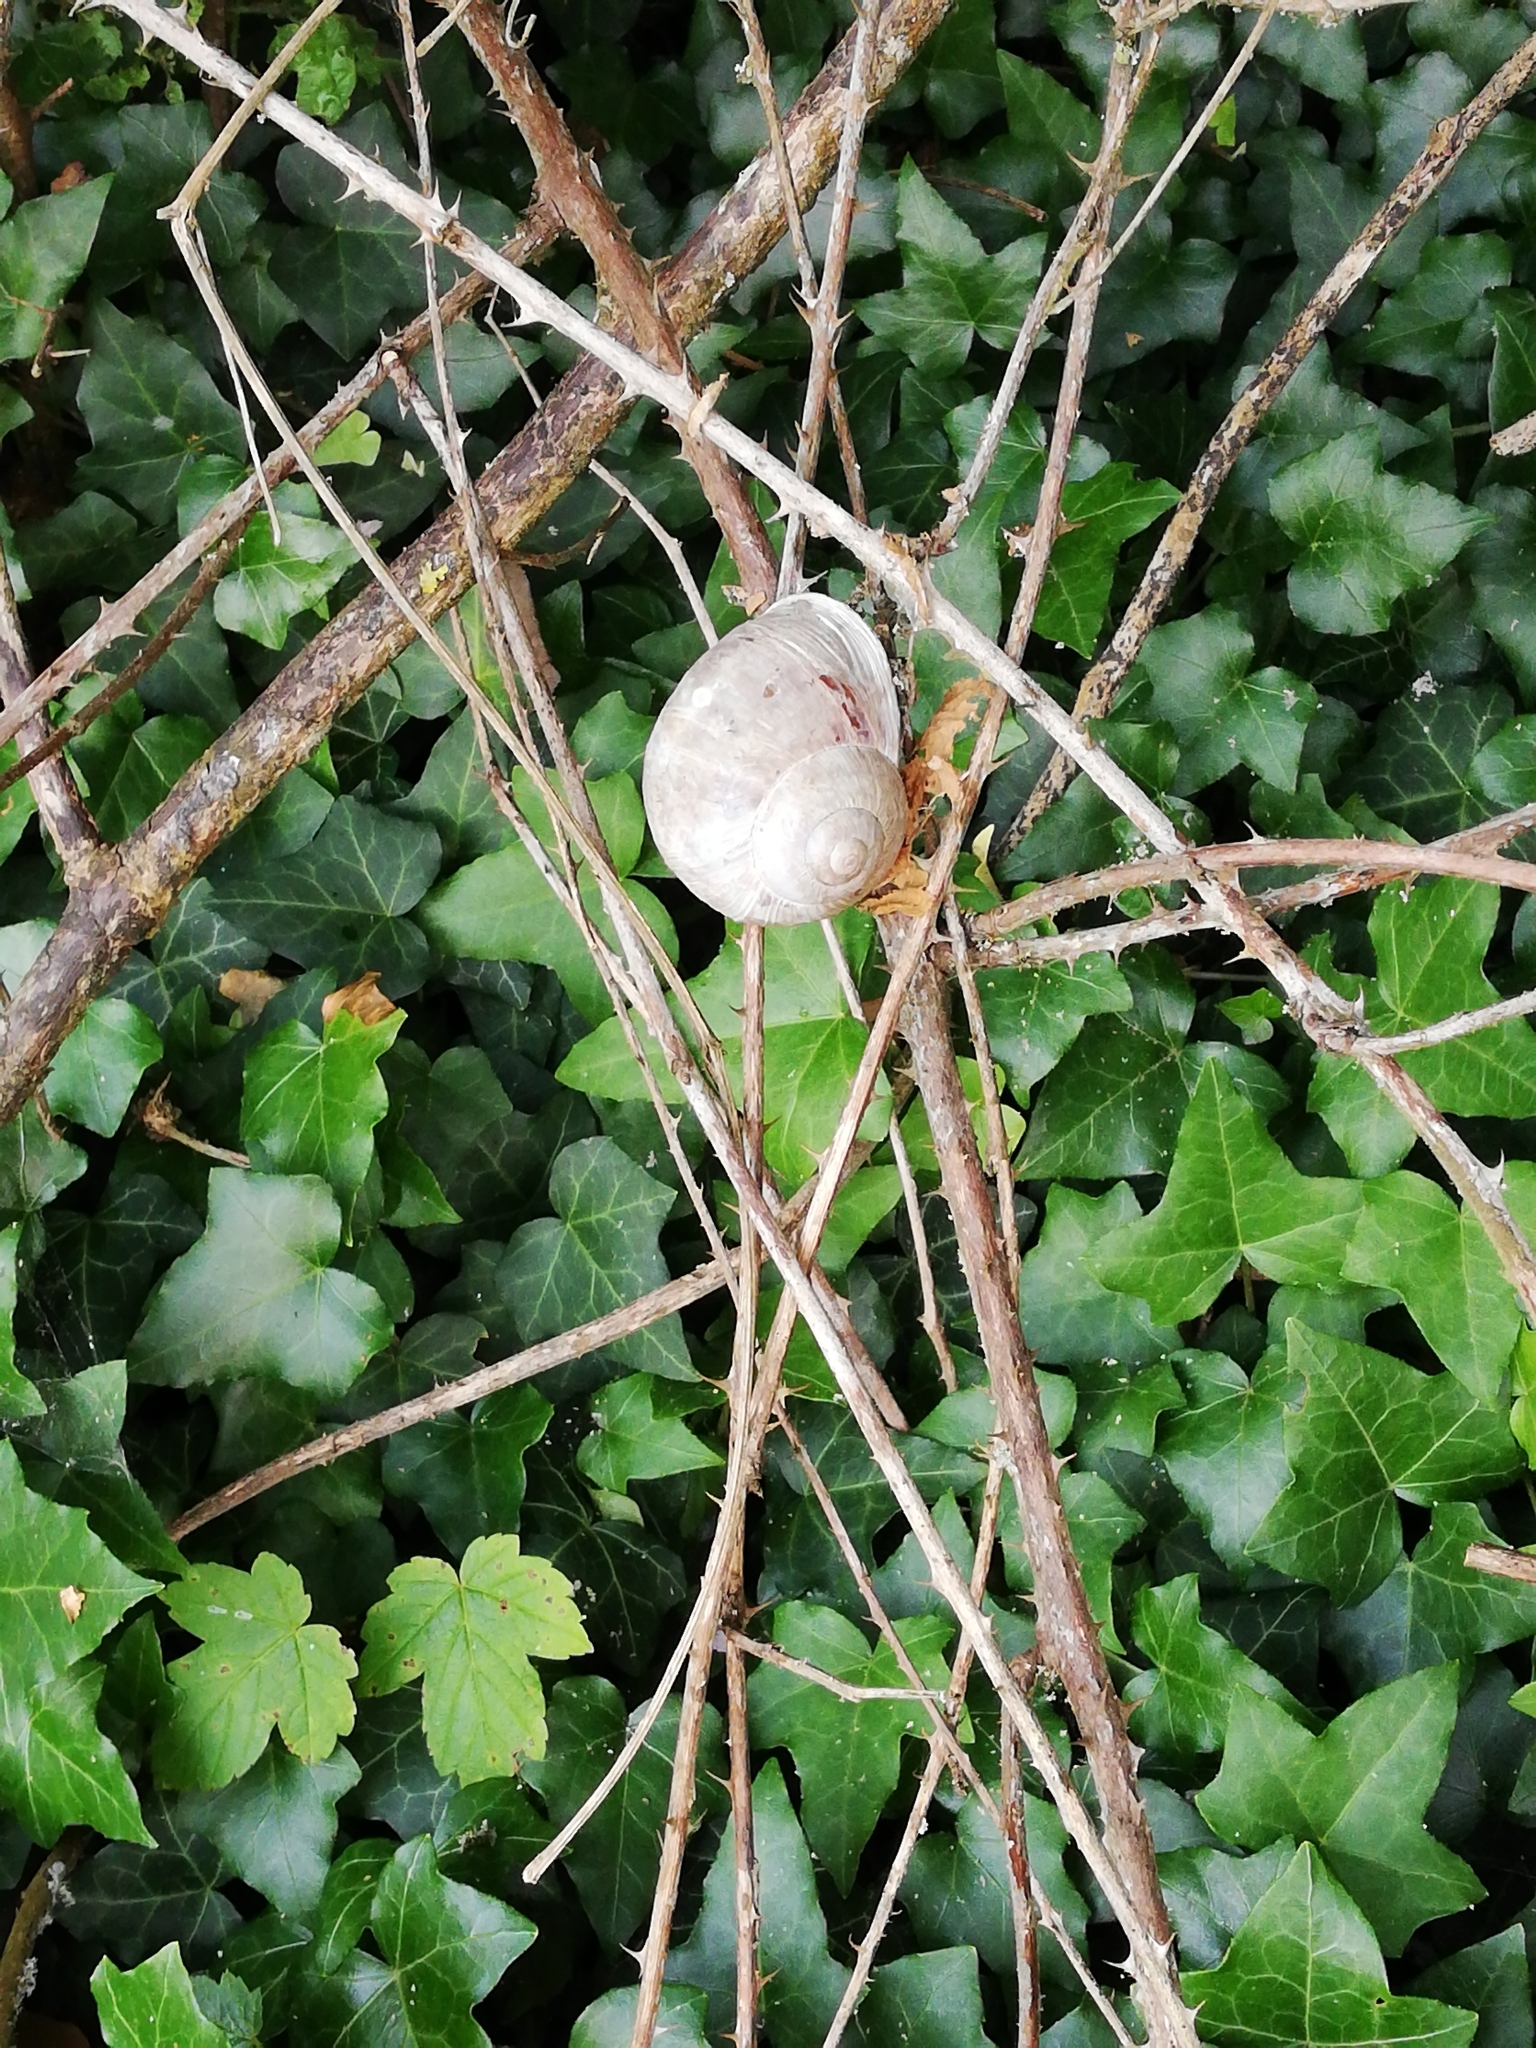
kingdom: Animalia
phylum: Mollusca
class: Gastropoda
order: Stylommatophora
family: Helicidae
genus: Helix
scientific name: Helix pomatia
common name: Roman snail
